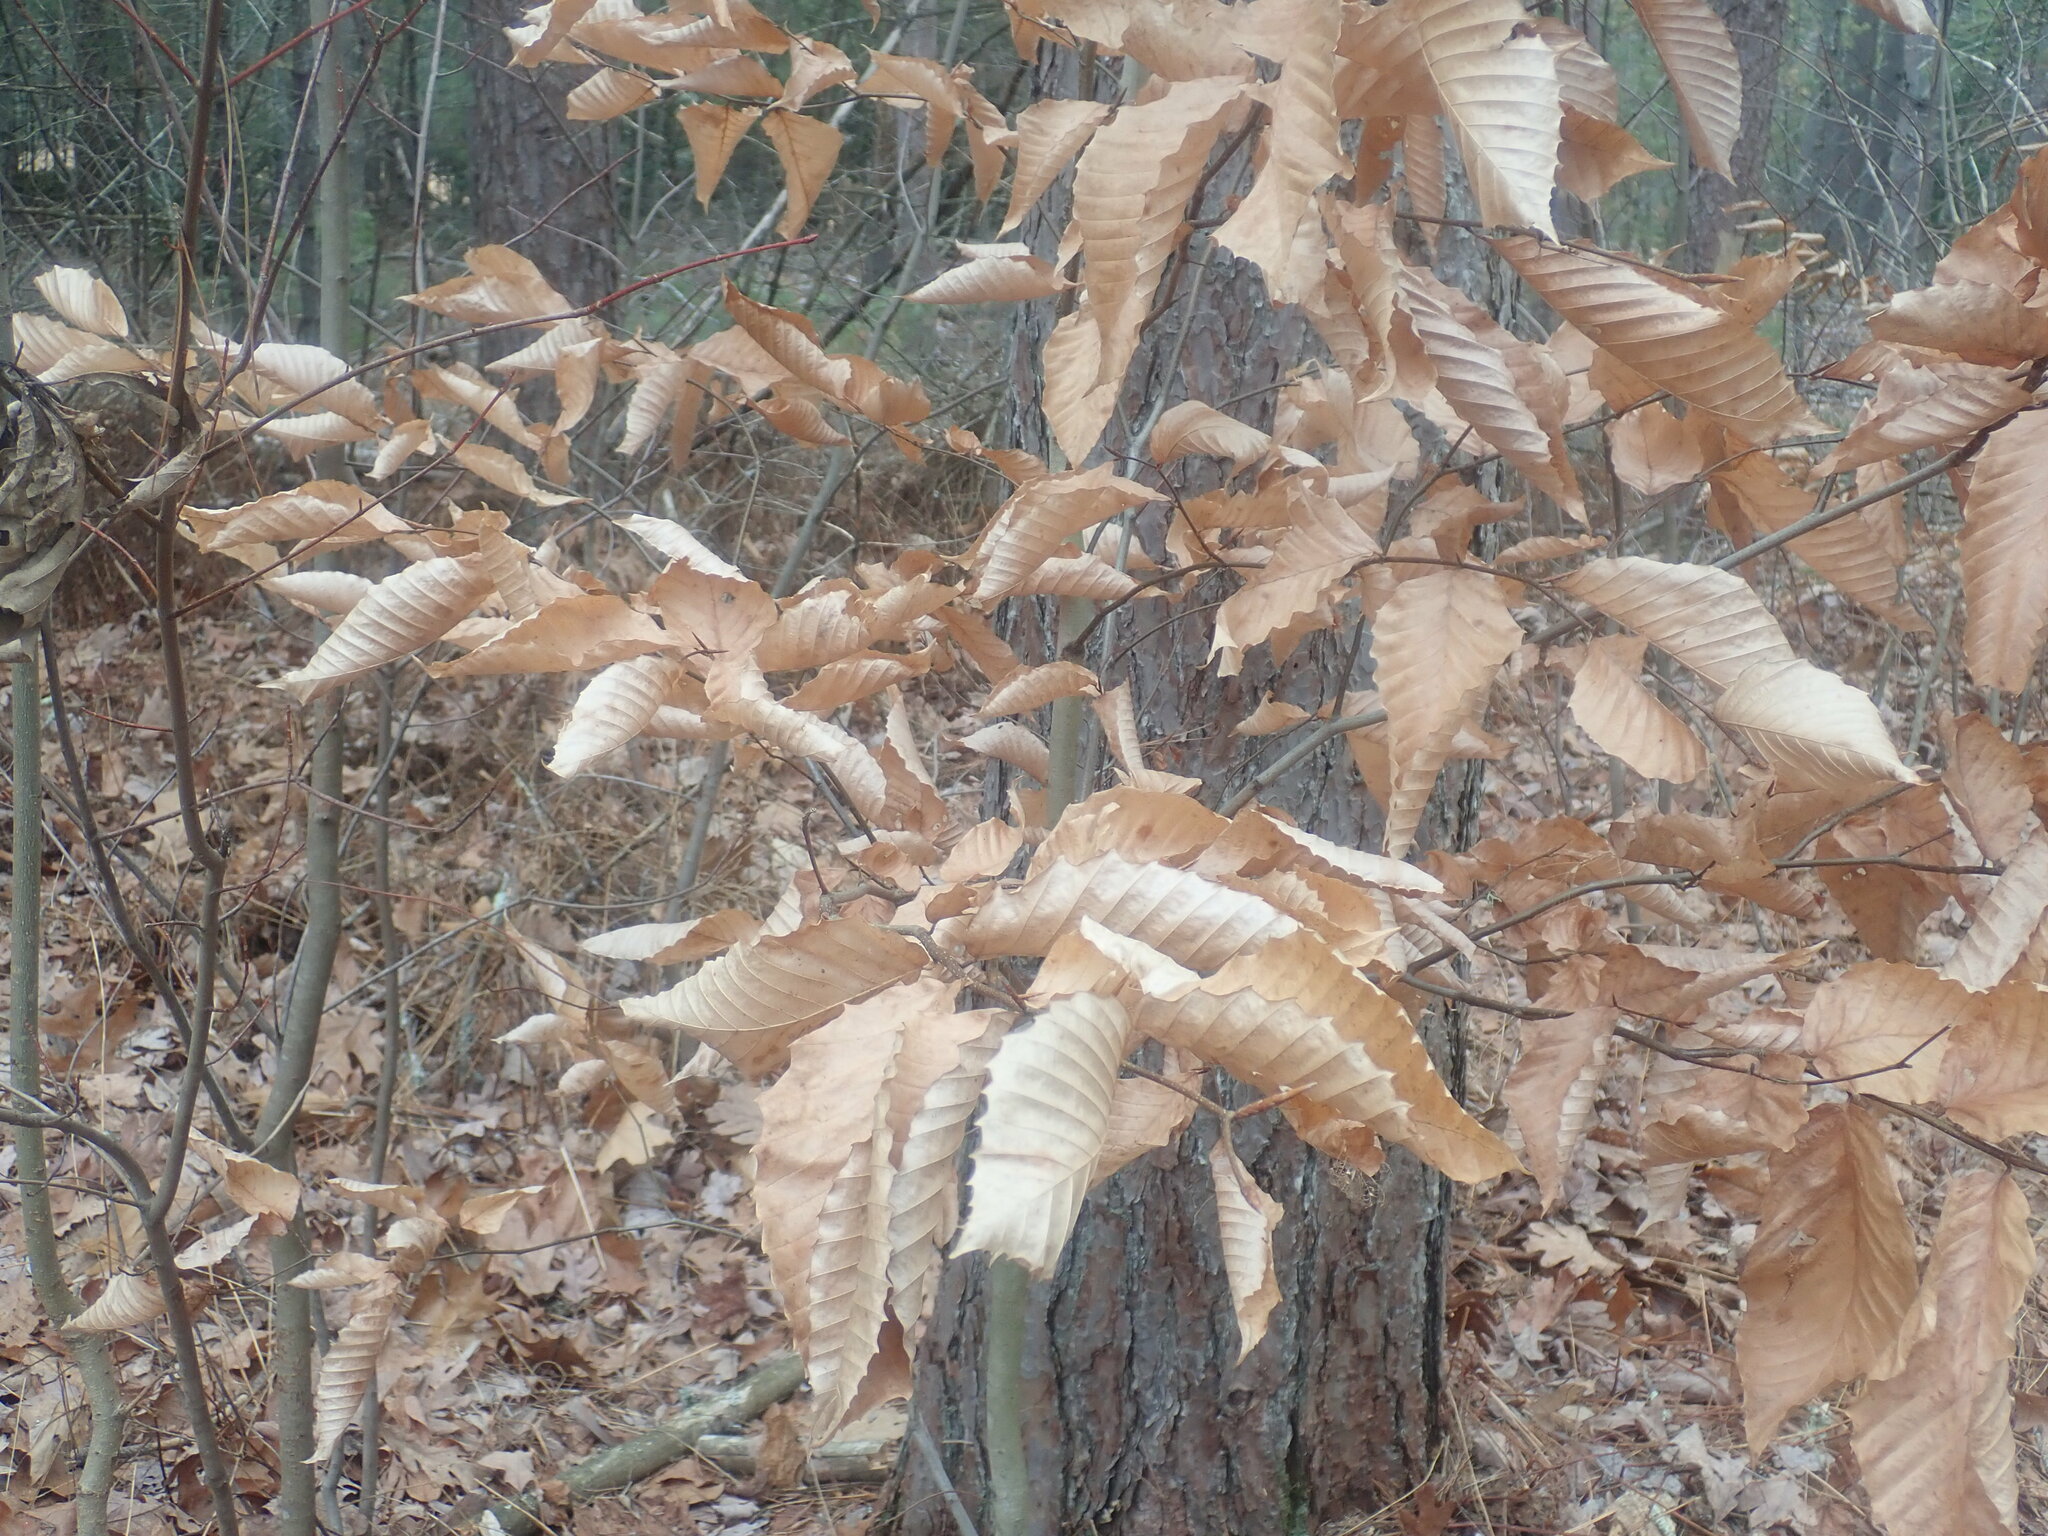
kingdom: Plantae
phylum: Tracheophyta
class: Magnoliopsida
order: Fagales
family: Fagaceae
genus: Fagus
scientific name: Fagus grandifolia
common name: American beech
